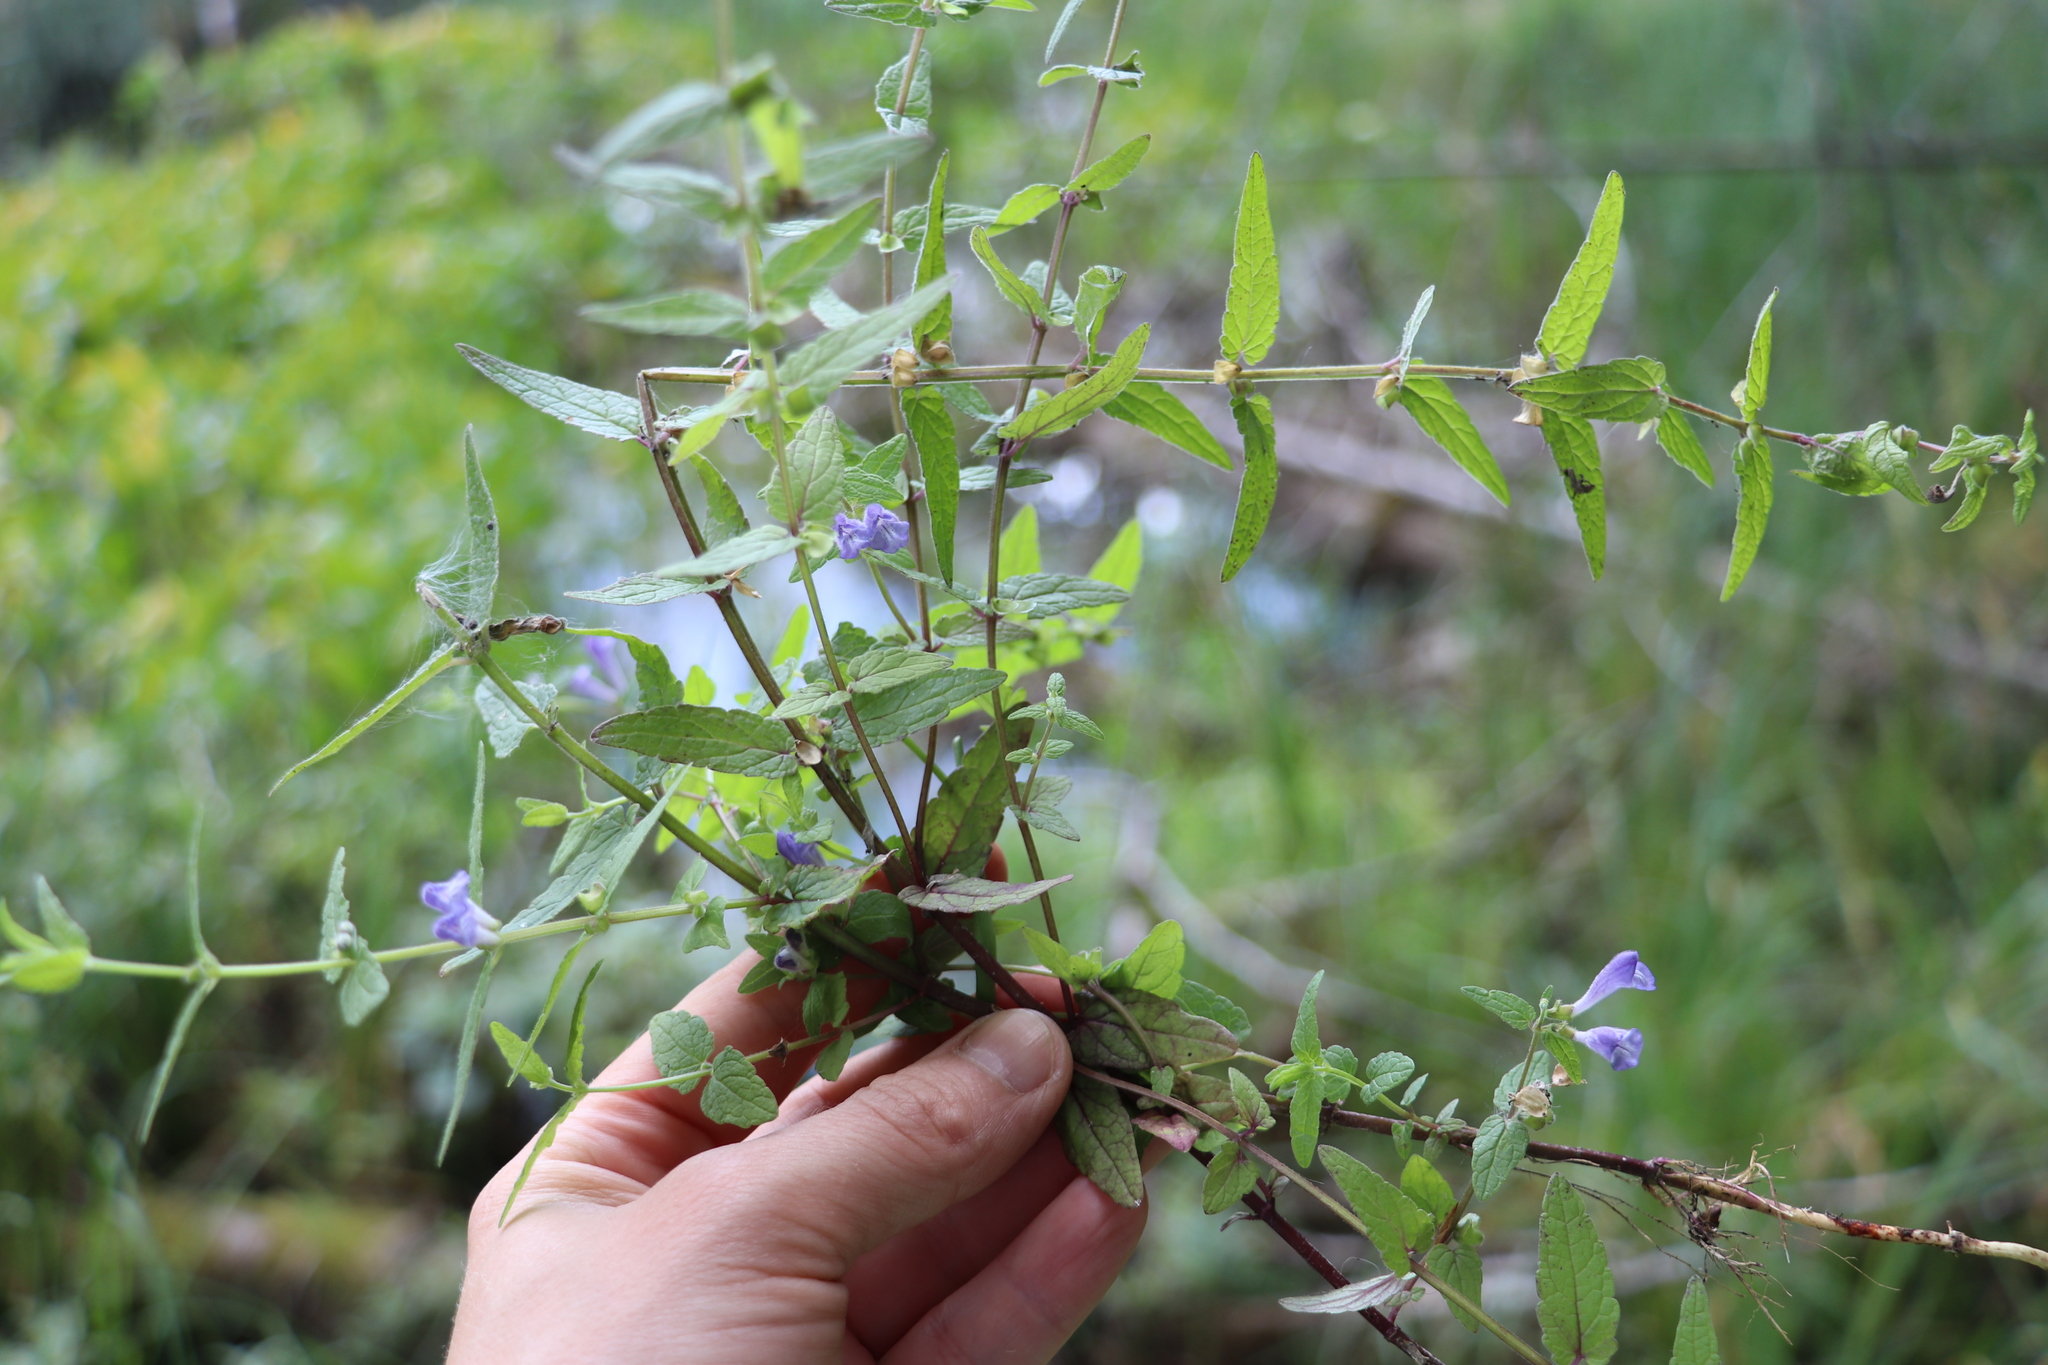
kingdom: Plantae
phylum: Tracheophyta
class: Magnoliopsida
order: Lamiales
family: Lamiaceae
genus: Scutellaria
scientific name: Scutellaria galericulata
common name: Skullcap
